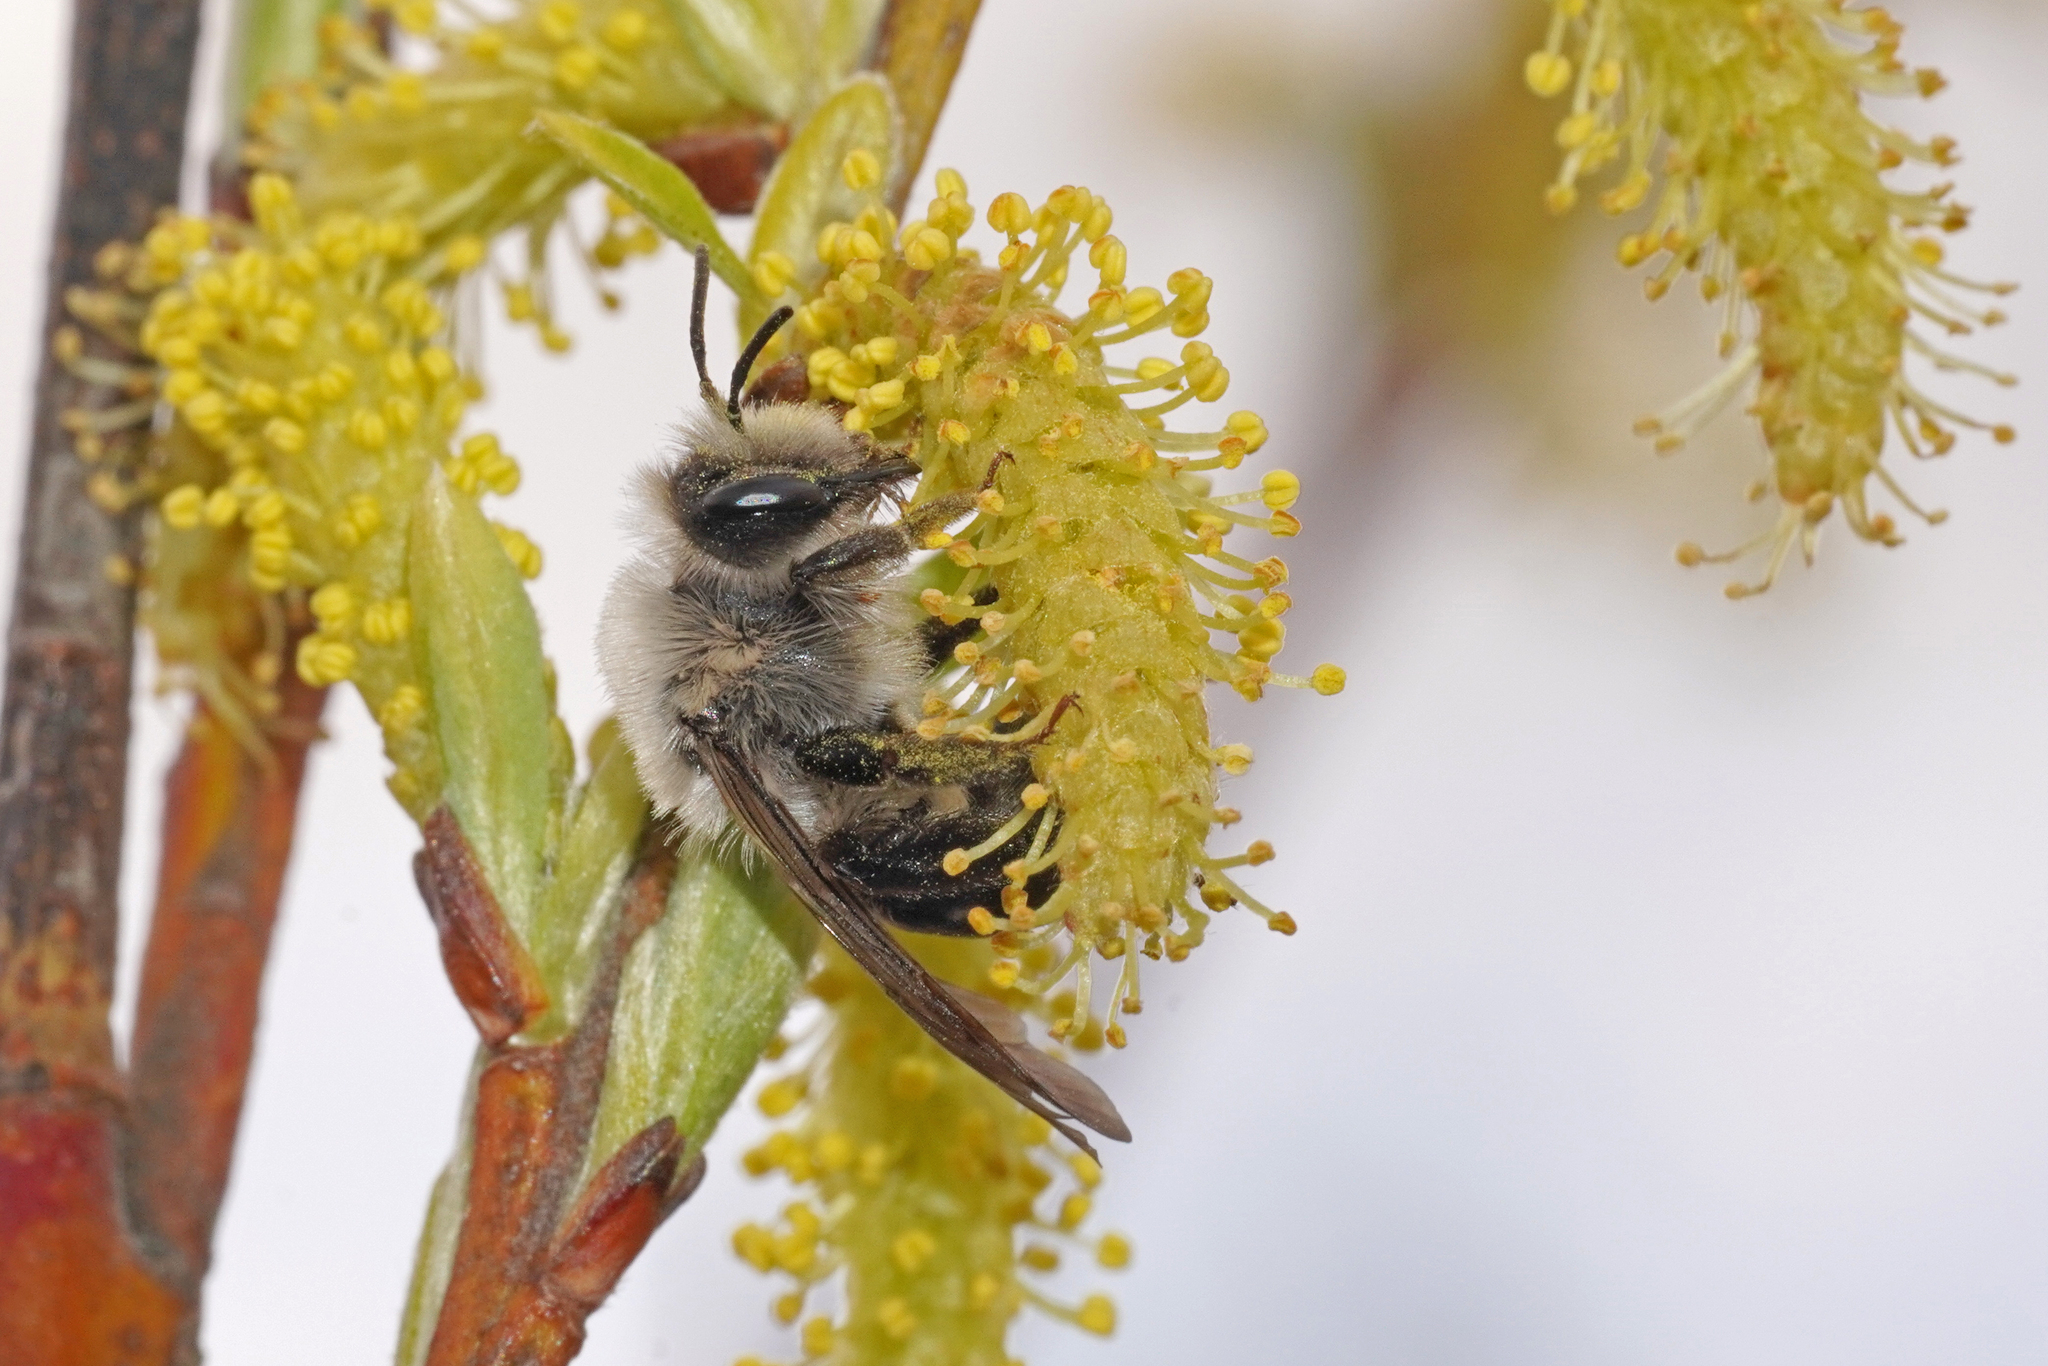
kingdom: Animalia
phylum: Arthropoda
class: Insecta
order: Hymenoptera
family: Andrenidae
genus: Andrena
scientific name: Andrena vaga
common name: Grey-backed mining bee
